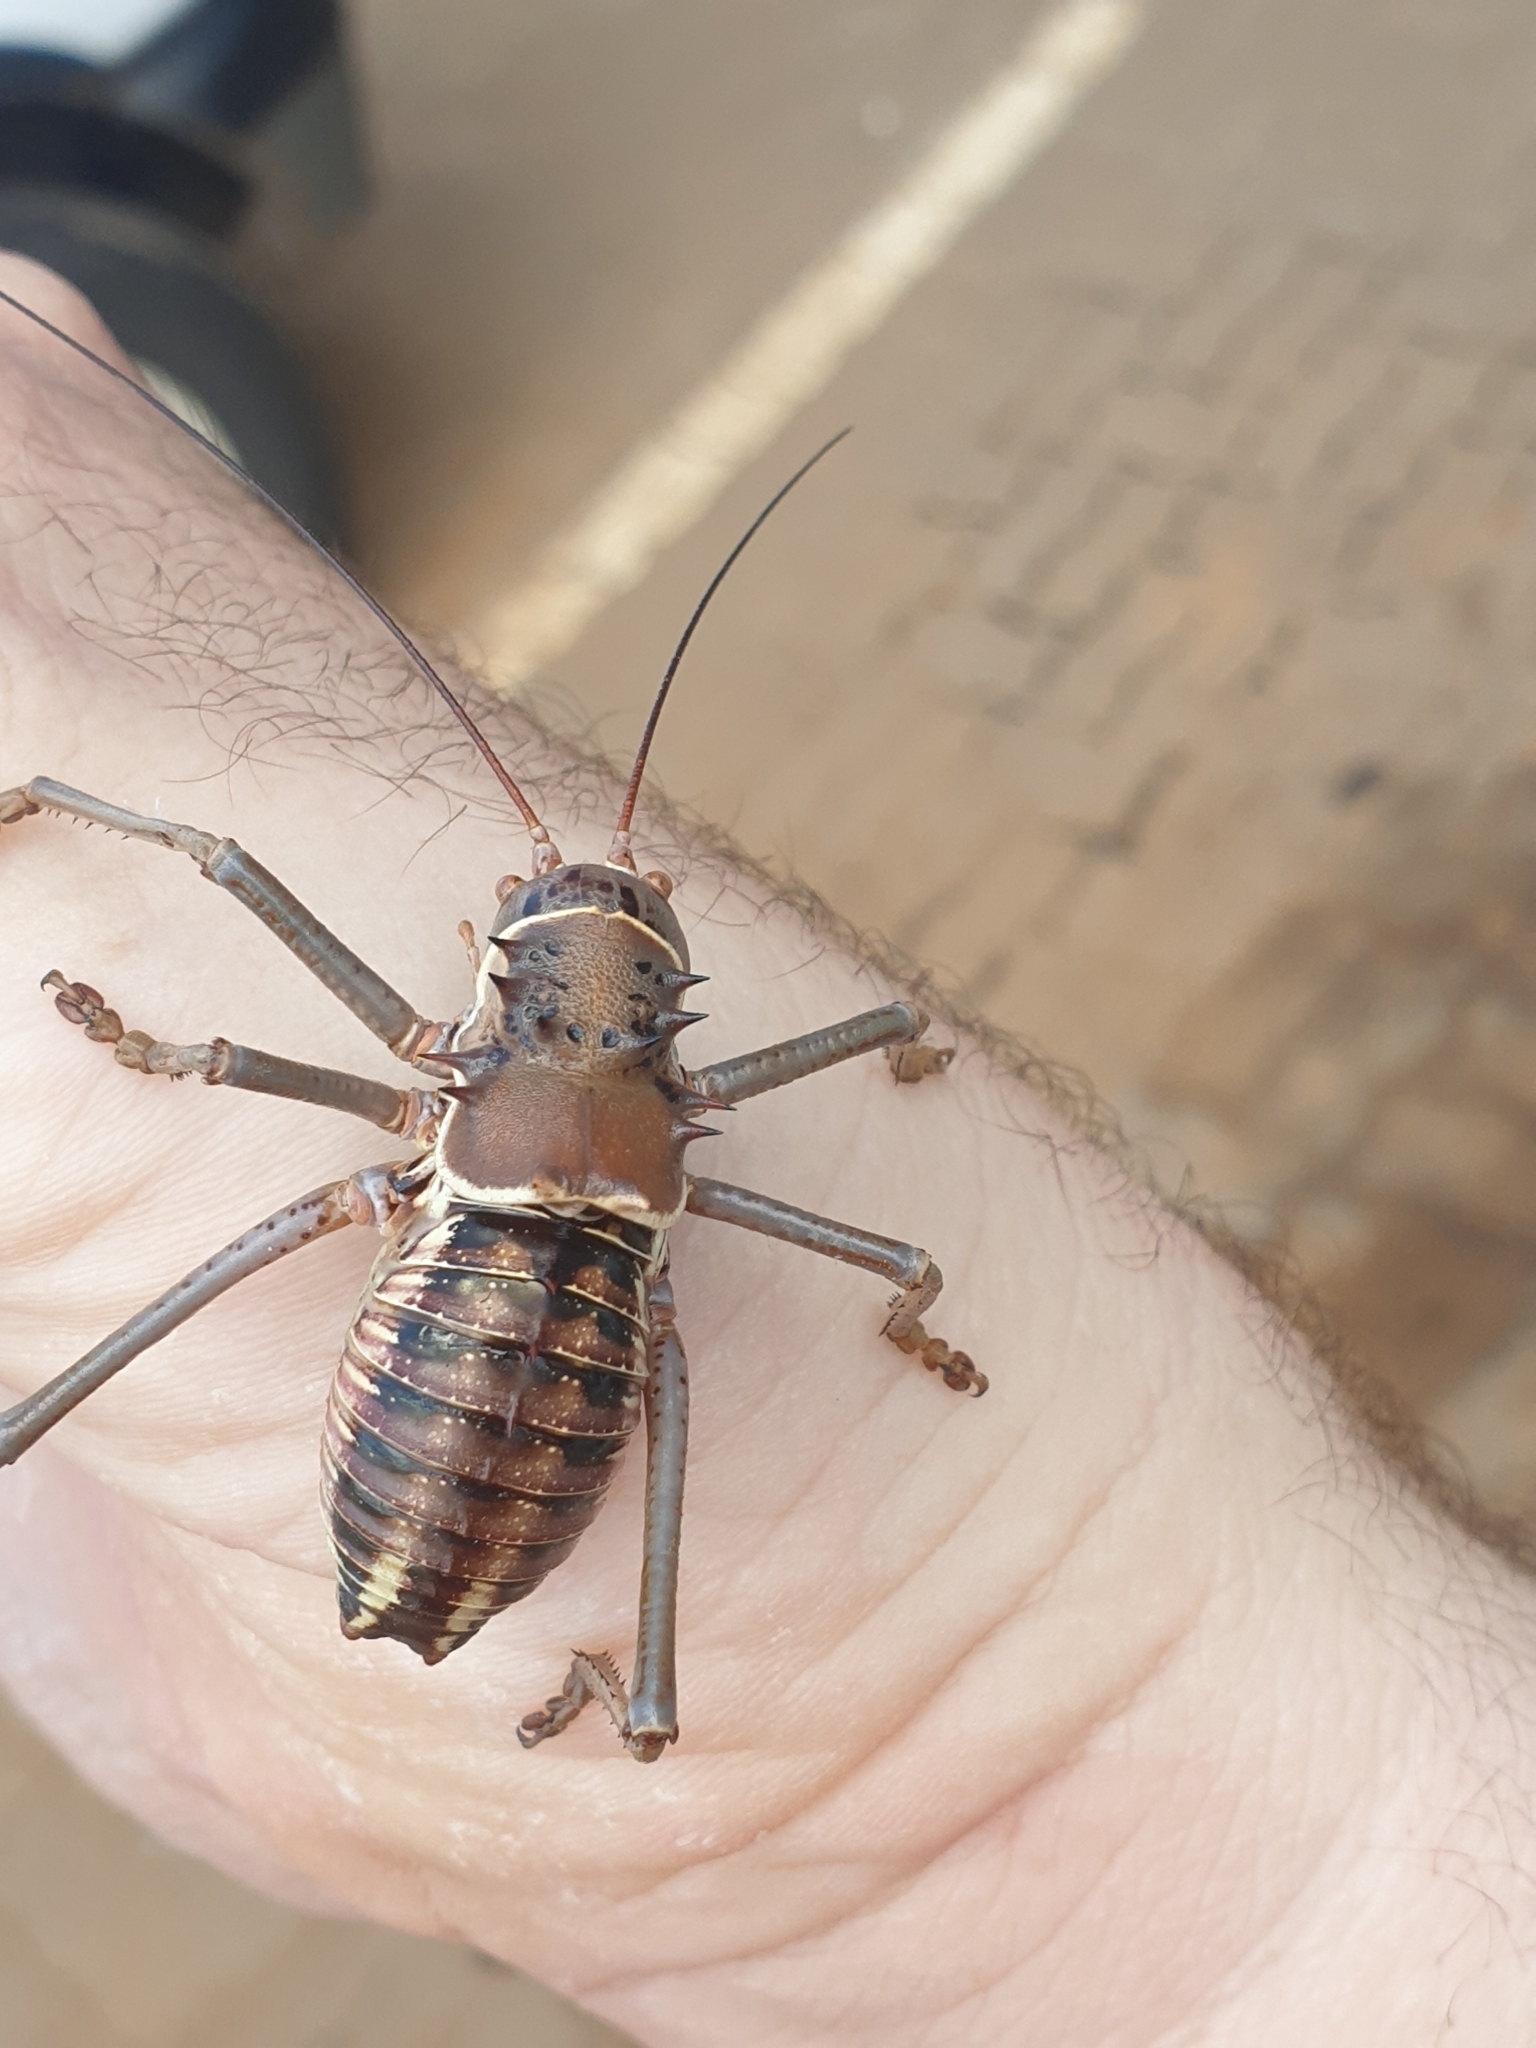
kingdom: Animalia
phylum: Arthropoda
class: Insecta
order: Orthoptera
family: Tettigoniidae
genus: Acanthoplus
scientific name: Acanthoplus discoidalis
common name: Armoured katydid
